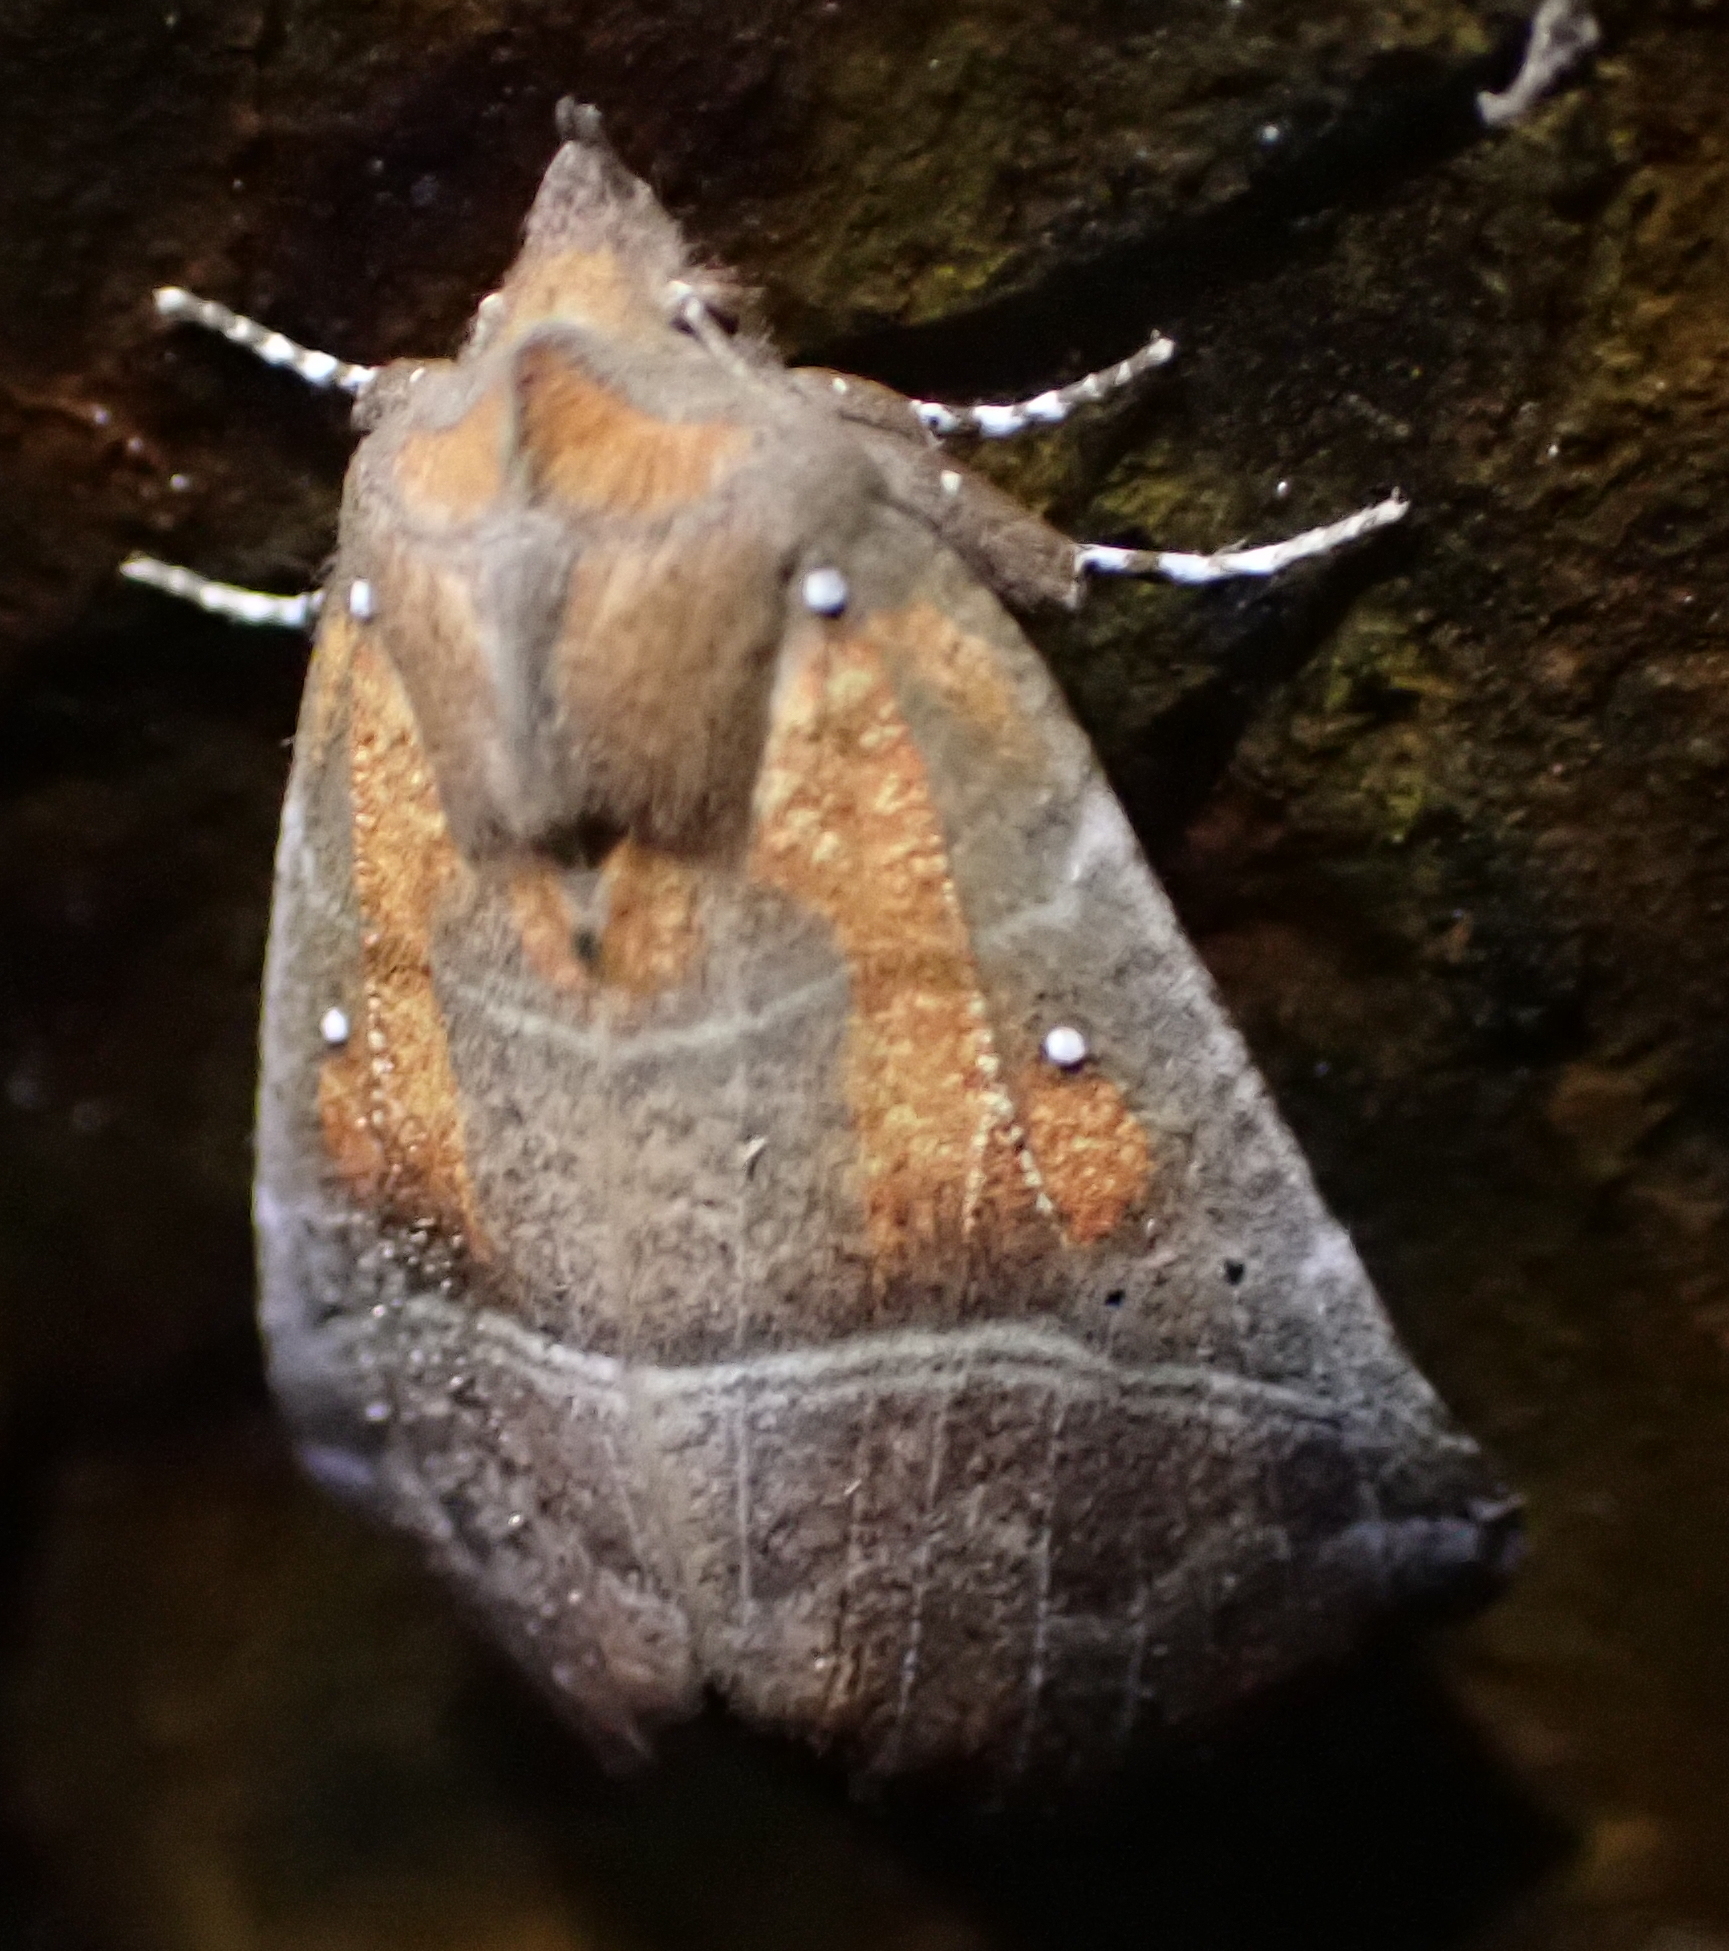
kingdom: Animalia
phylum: Arthropoda
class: Insecta
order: Lepidoptera
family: Erebidae
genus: Scoliopteryx
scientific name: Scoliopteryx libatrix
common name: Herald
